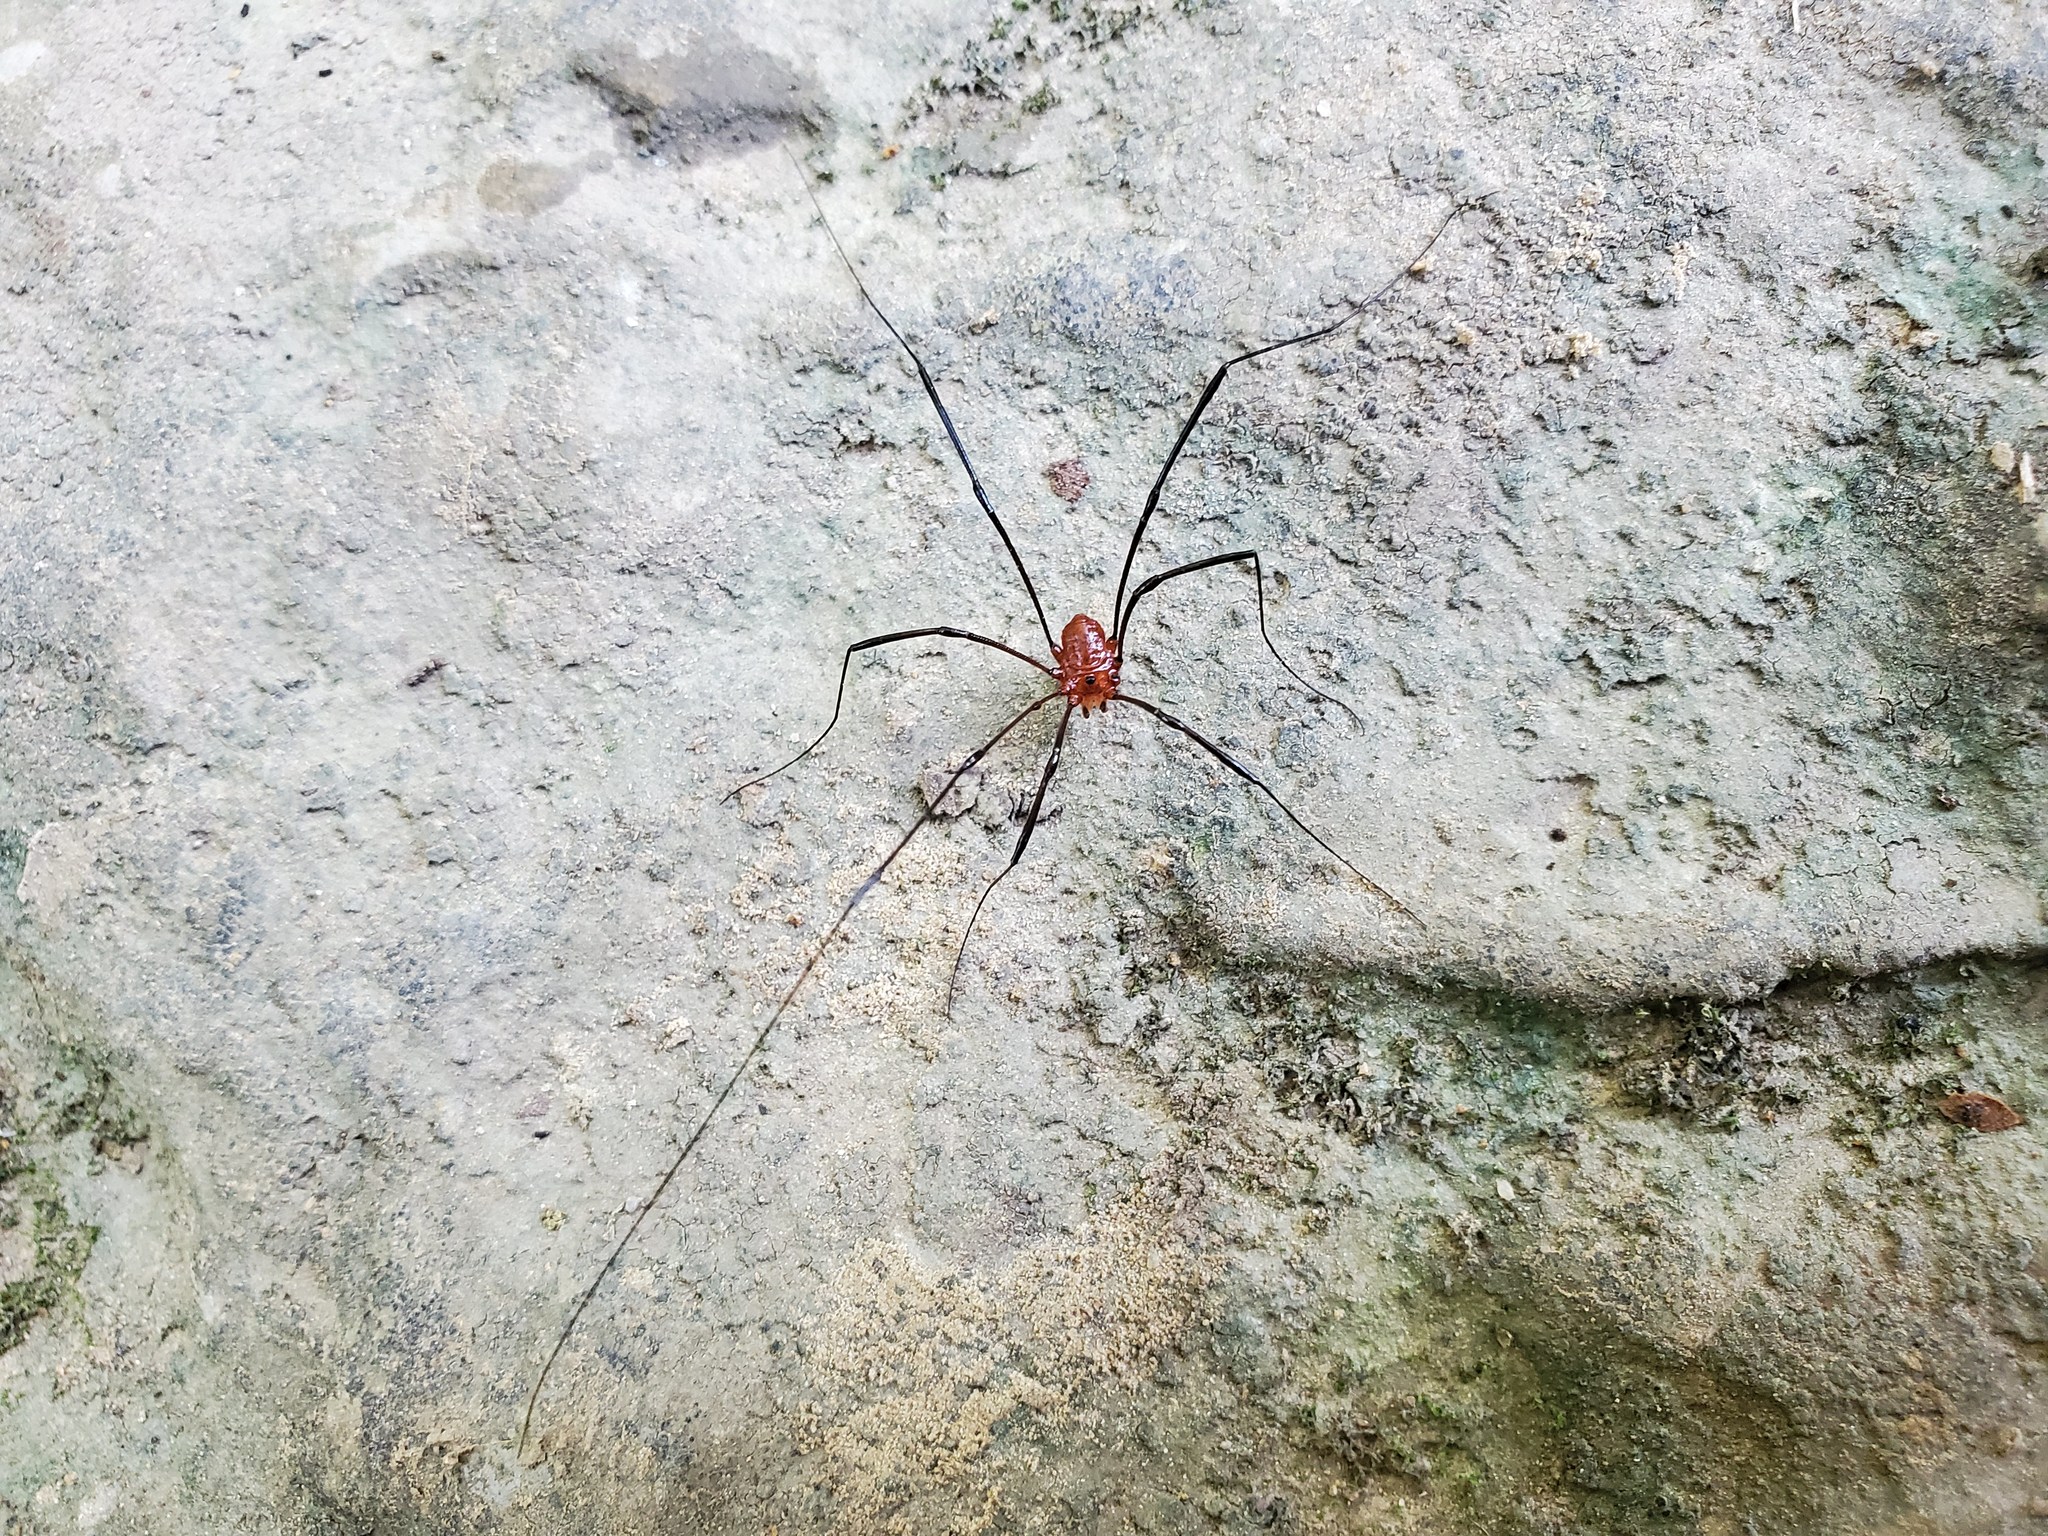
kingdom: Animalia
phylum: Arthropoda
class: Arachnida
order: Opiliones
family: Sclerosomatidae
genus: Leiobunum
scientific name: Leiobunum politum
